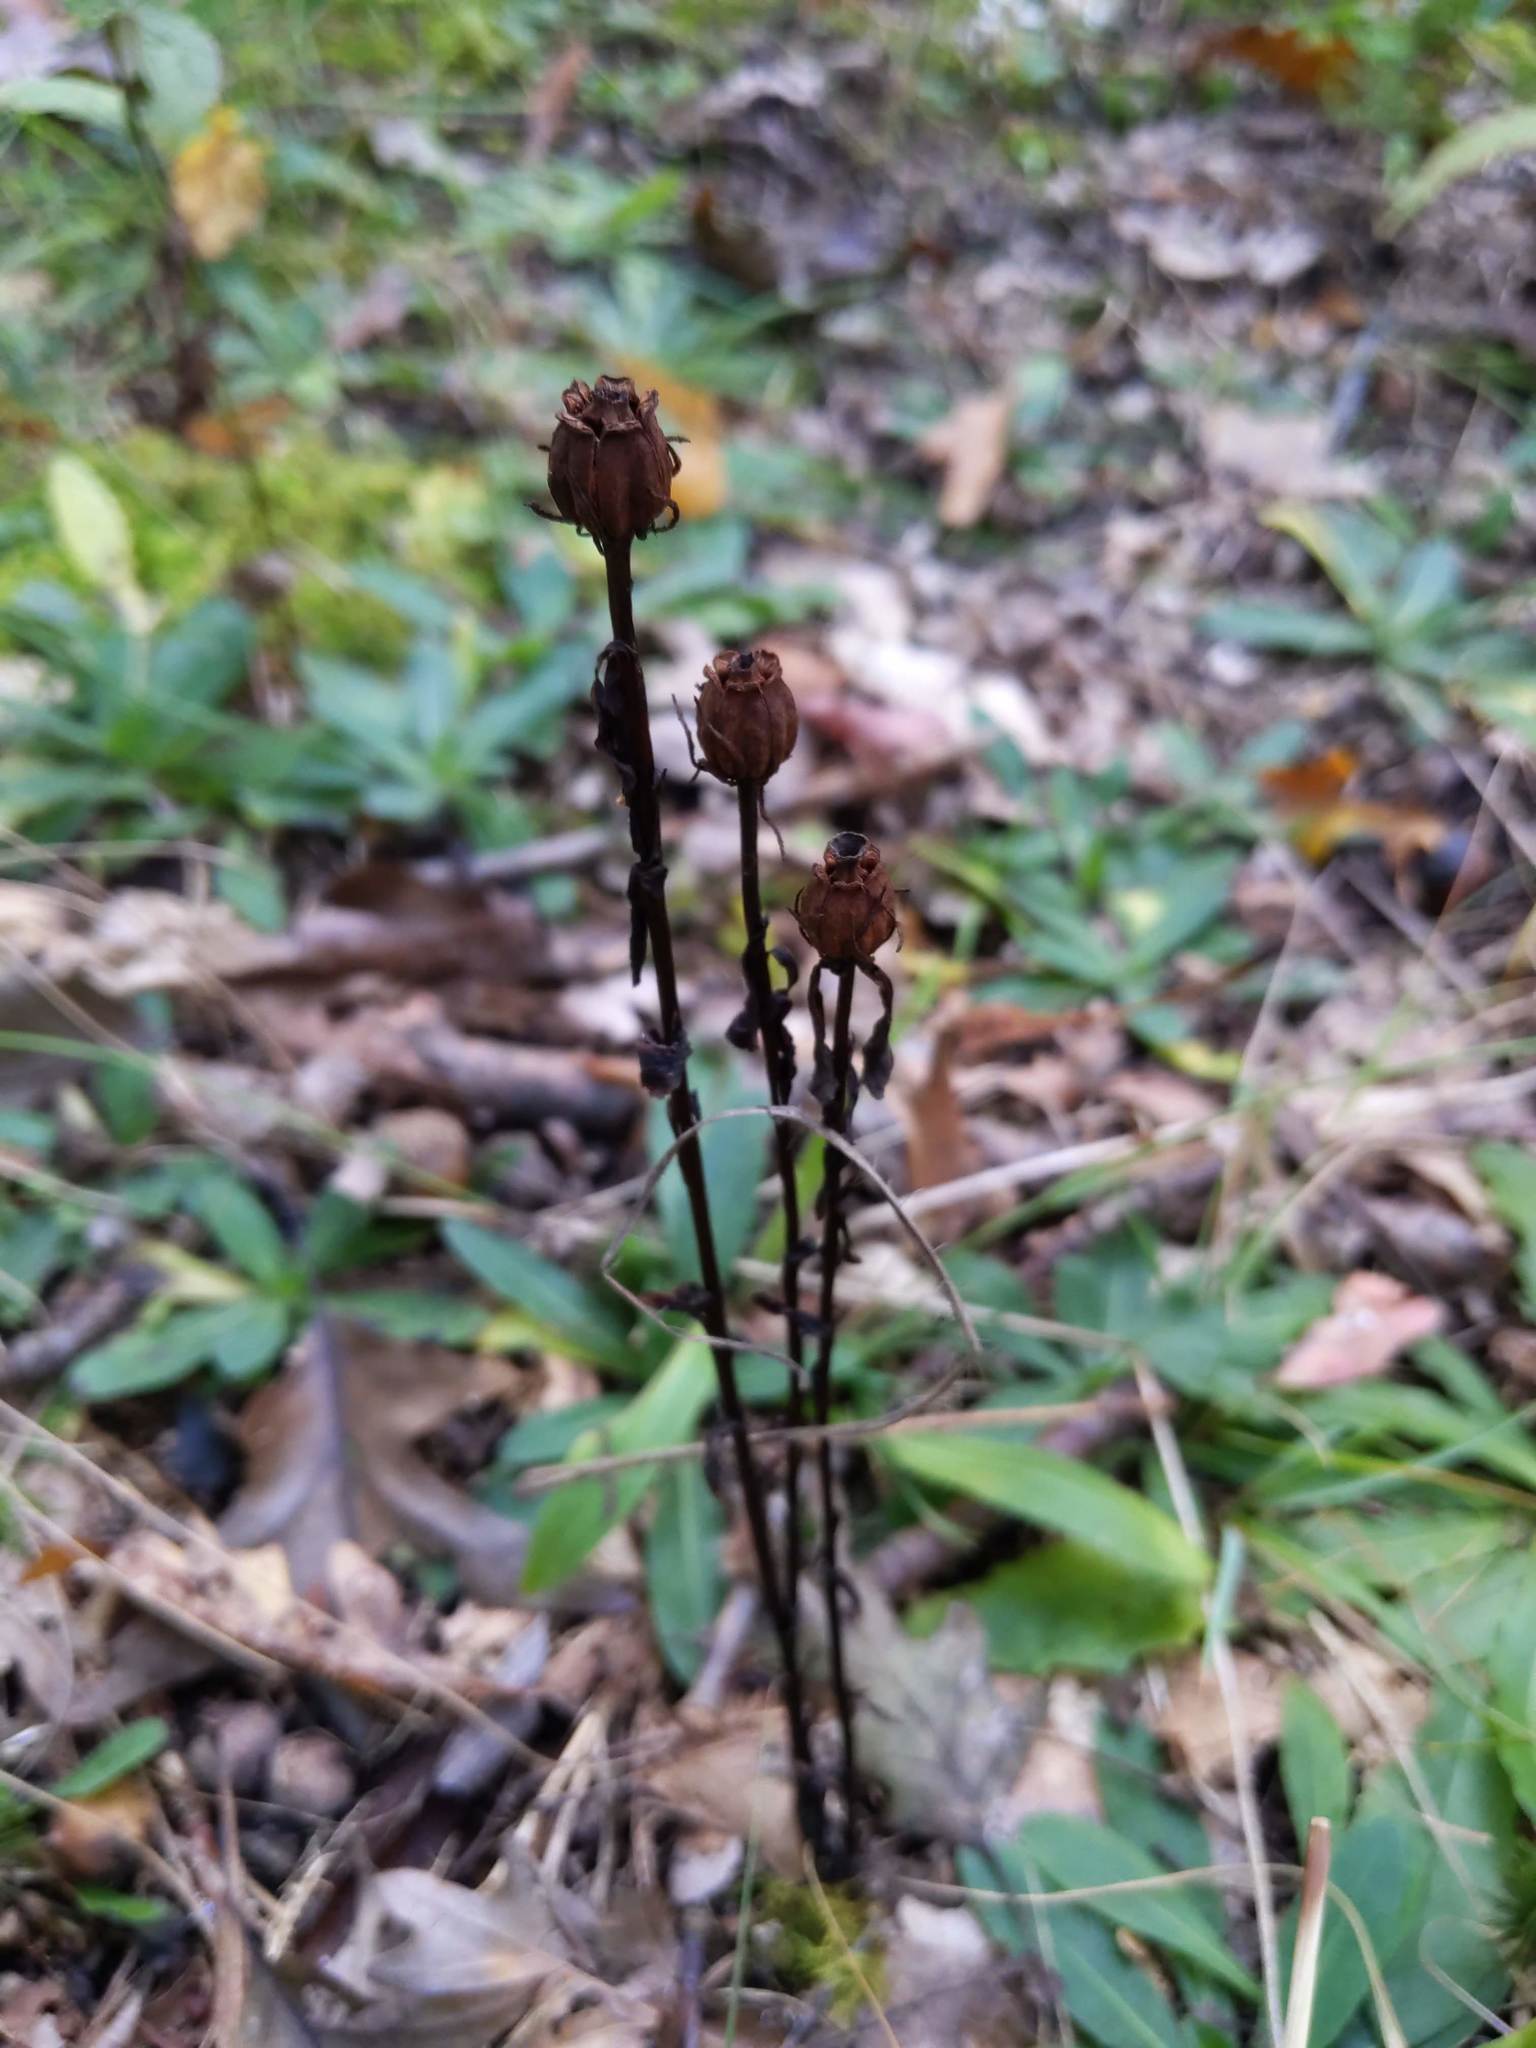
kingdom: Plantae
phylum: Tracheophyta
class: Magnoliopsida
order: Ericales
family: Ericaceae
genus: Monotropa
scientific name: Monotropa uniflora
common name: Convulsion root
